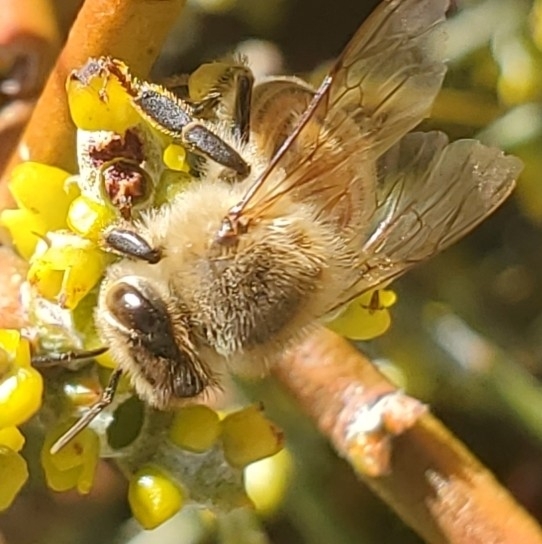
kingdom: Animalia
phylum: Arthropoda
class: Insecta
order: Hymenoptera
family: Apidae
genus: Apis
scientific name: Apis mellifera
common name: Honey bee
